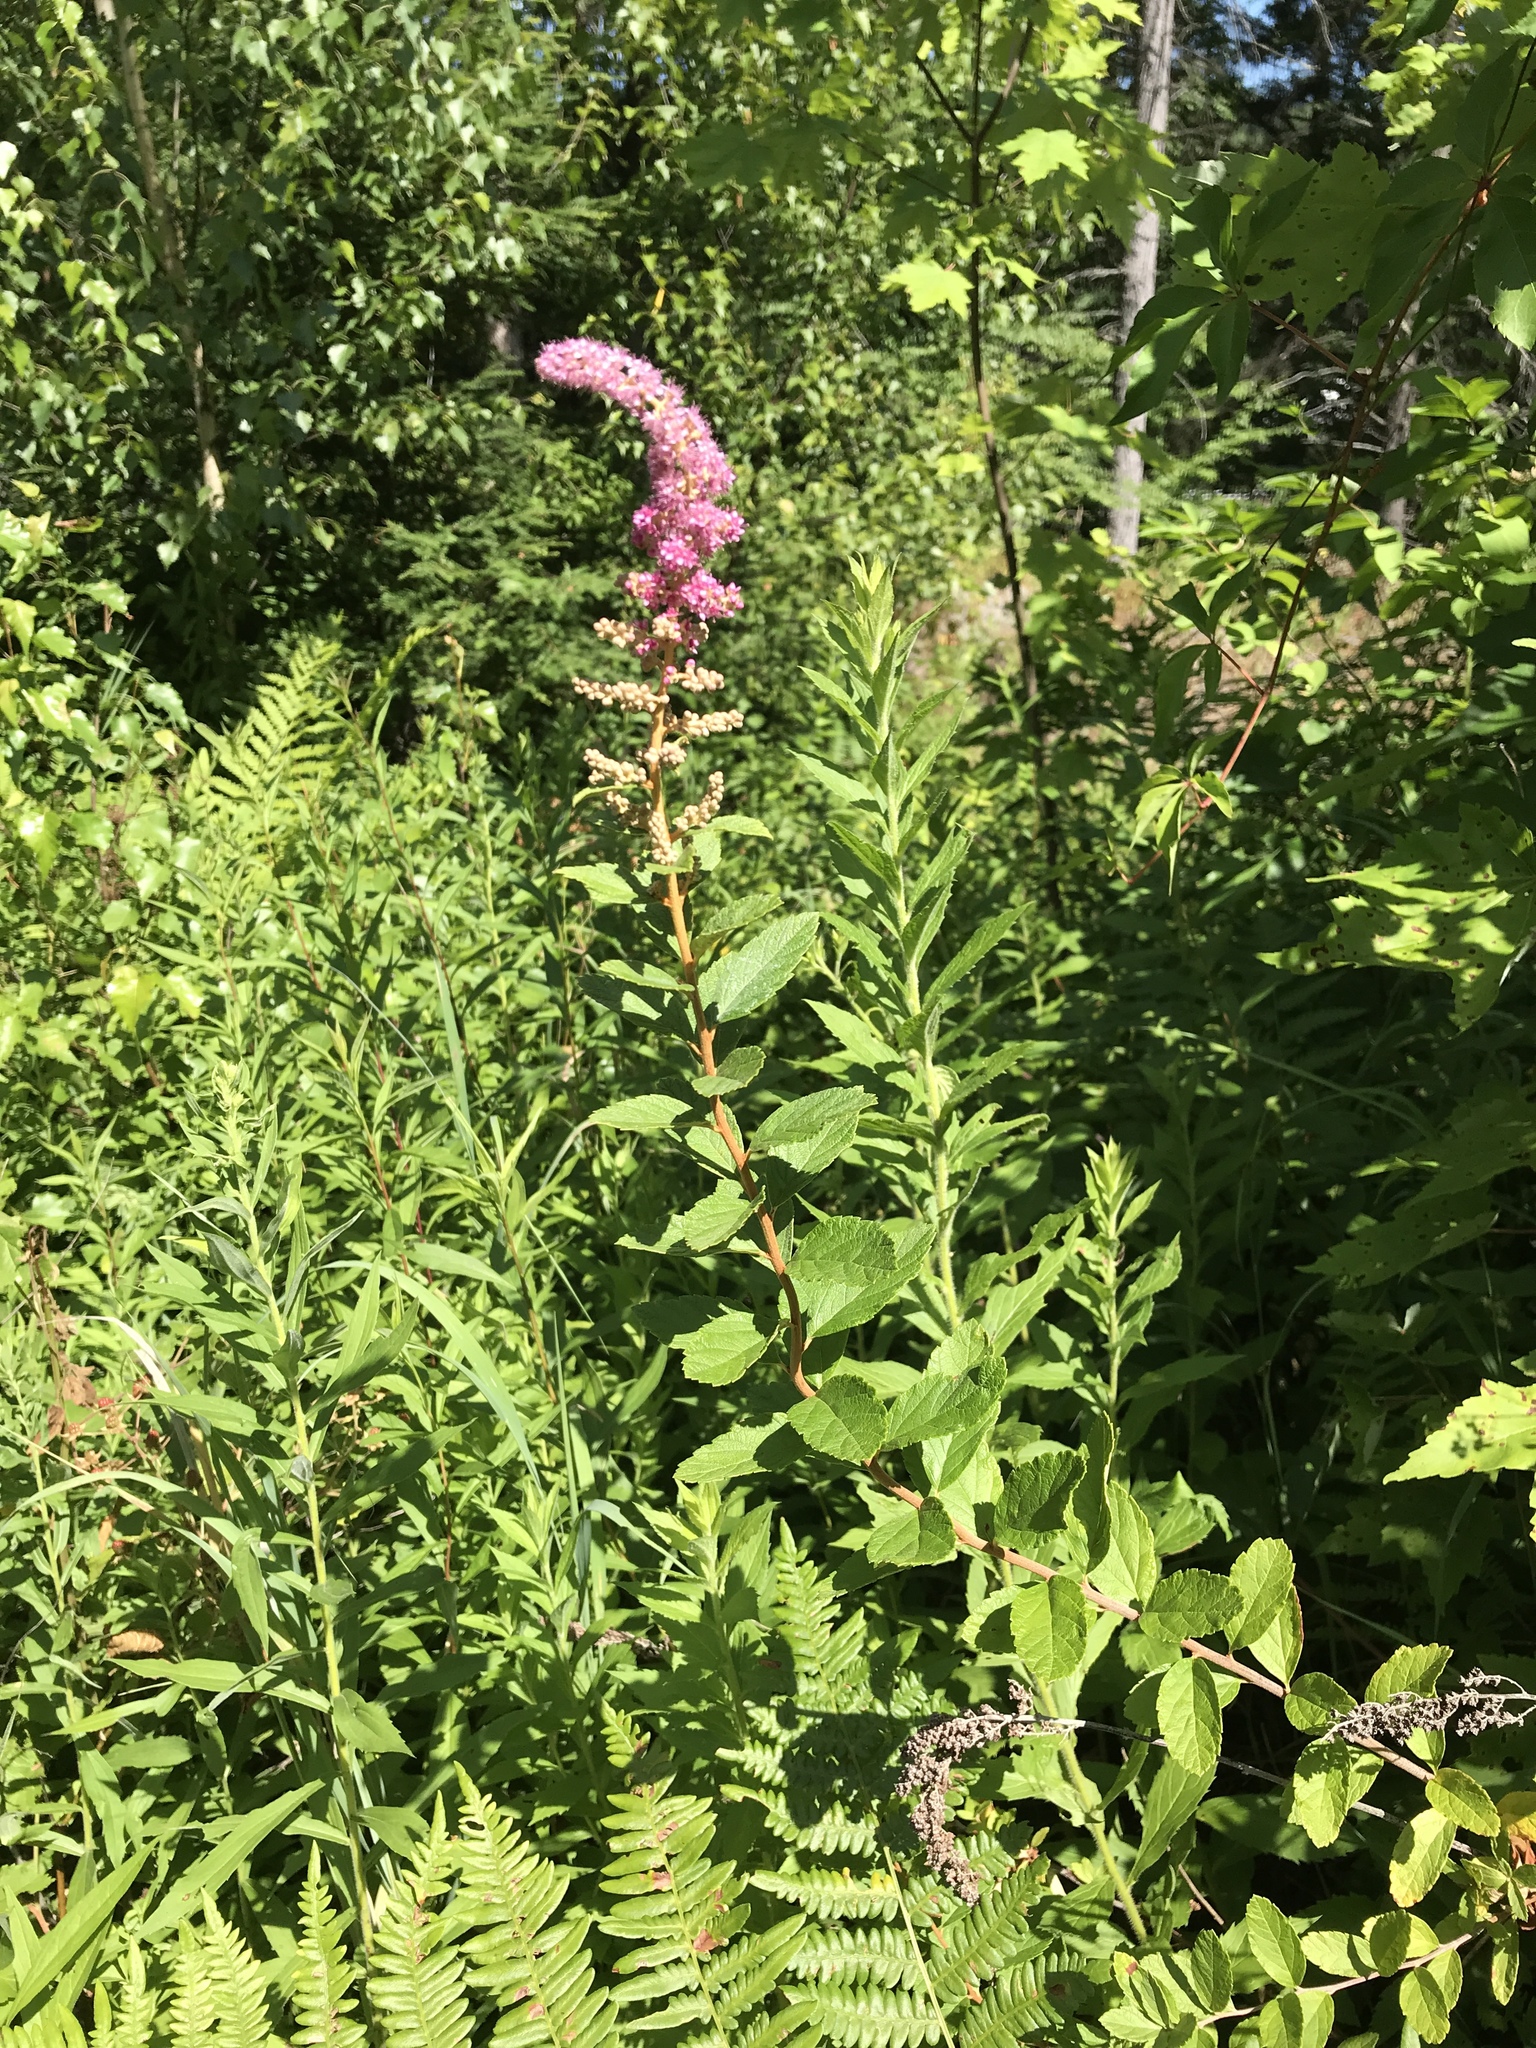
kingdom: Plantae
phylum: Tracheophyta
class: Magnoliopsida
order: Rosales
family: Rosaceae
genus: Spiraea
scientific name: Spiraea tomentosa
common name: Hardhack
